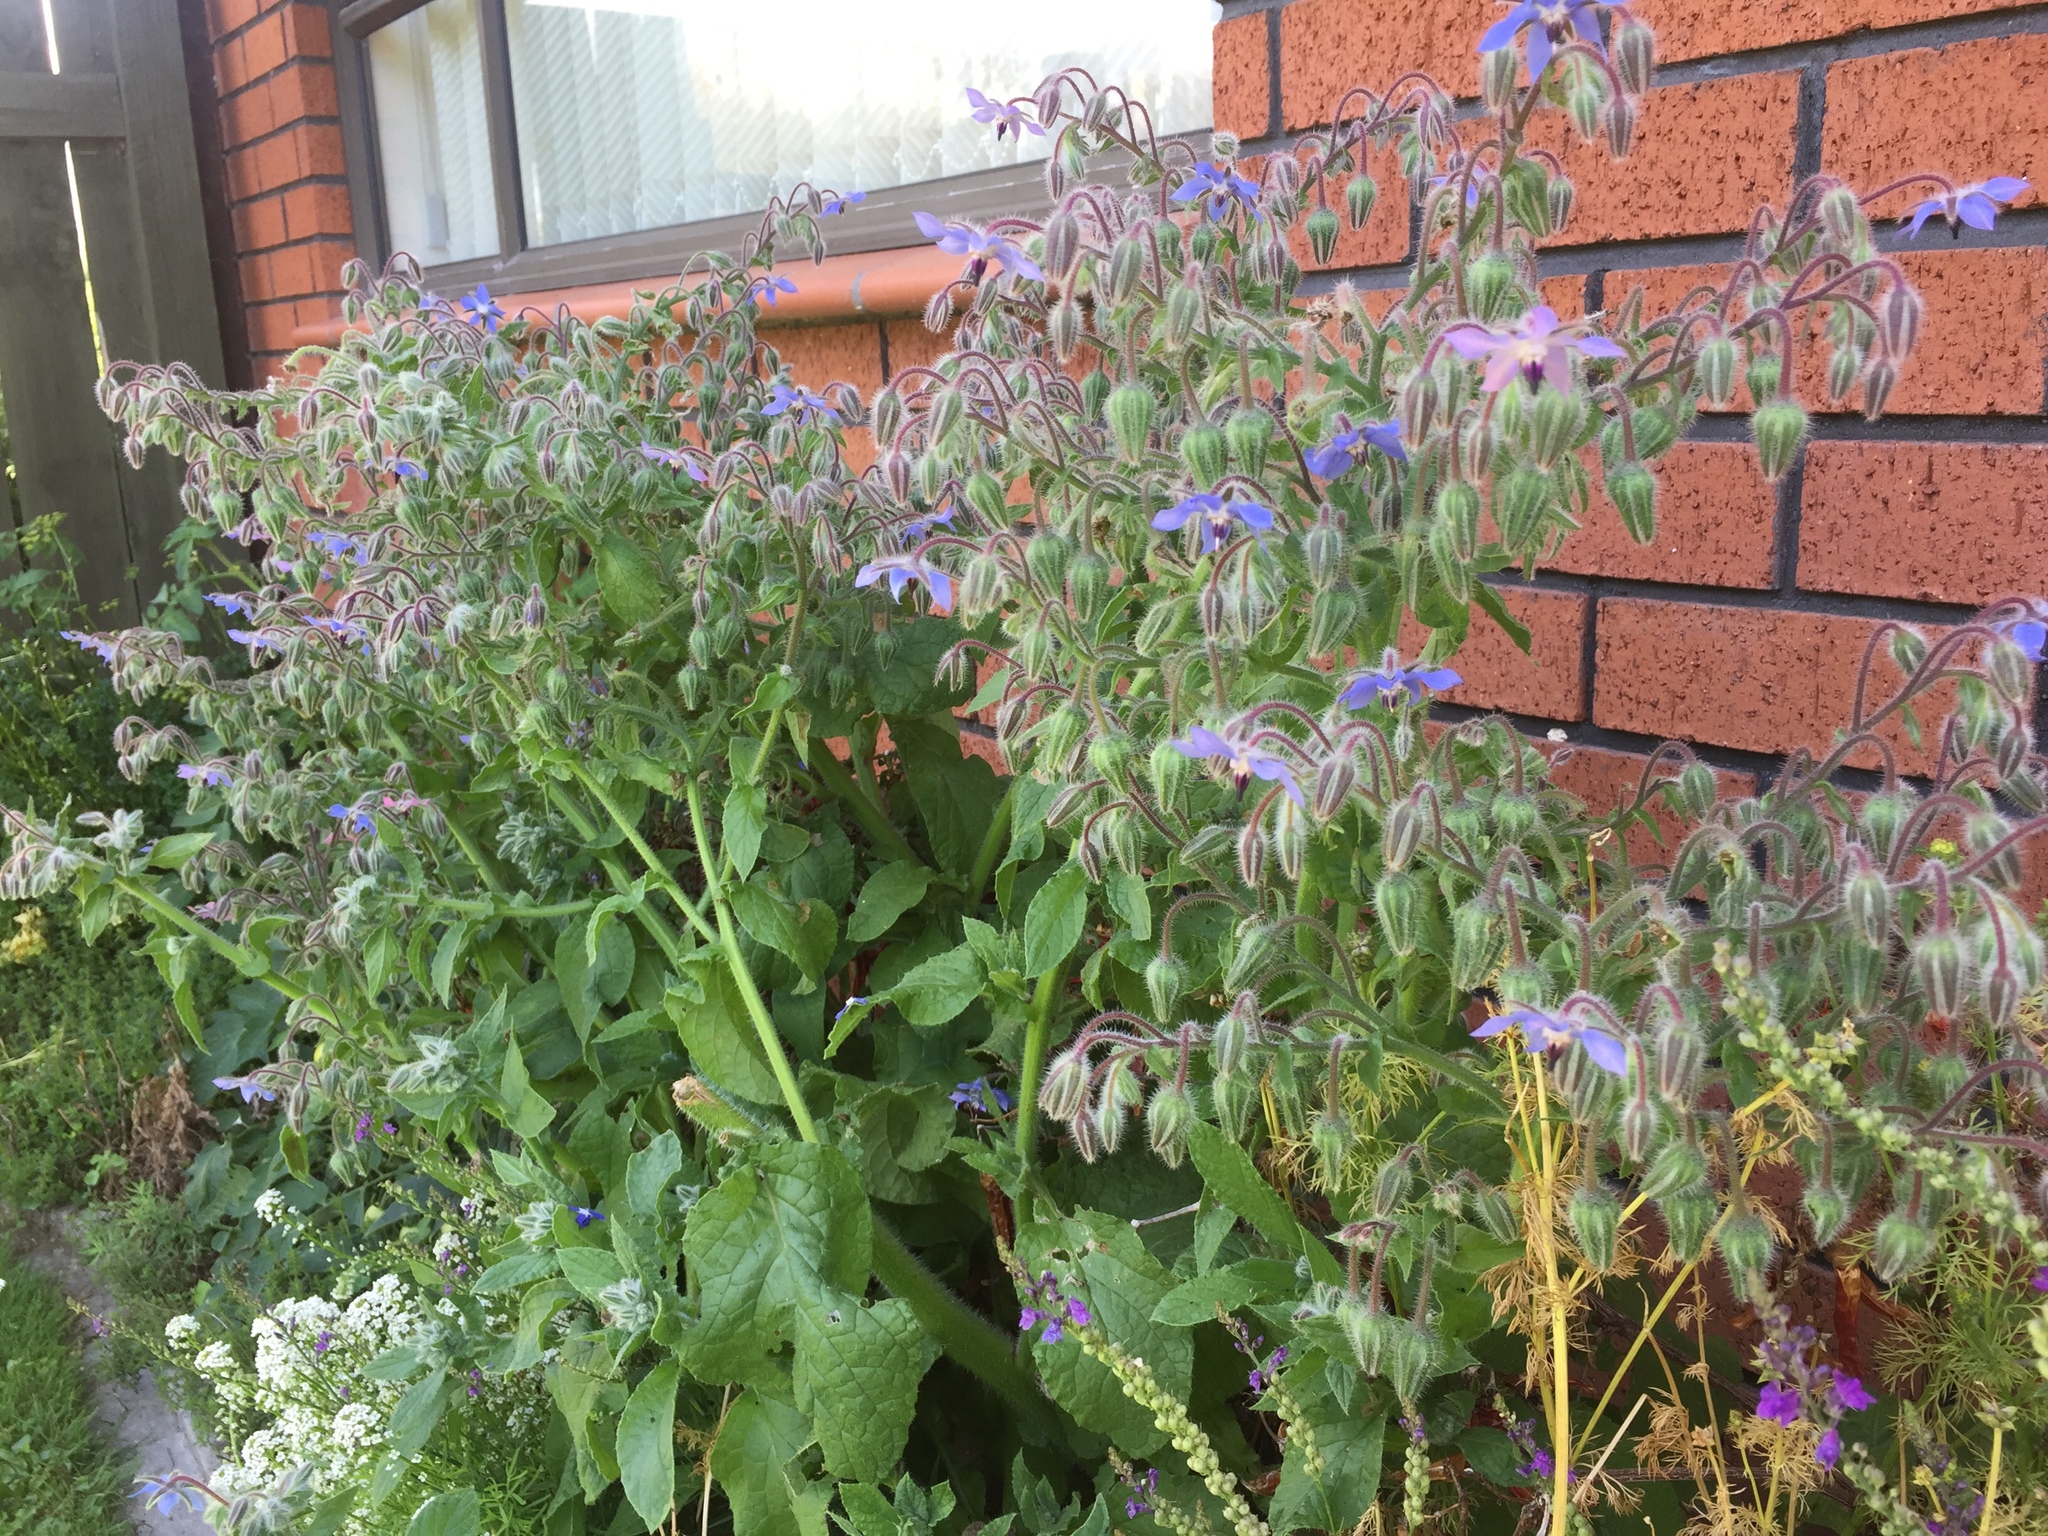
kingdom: Plantae
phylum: Tracheophyta
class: Magnoliopsida
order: Boraginales
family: Boraginaceae
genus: Borago
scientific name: Borago officinalis
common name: Borage
